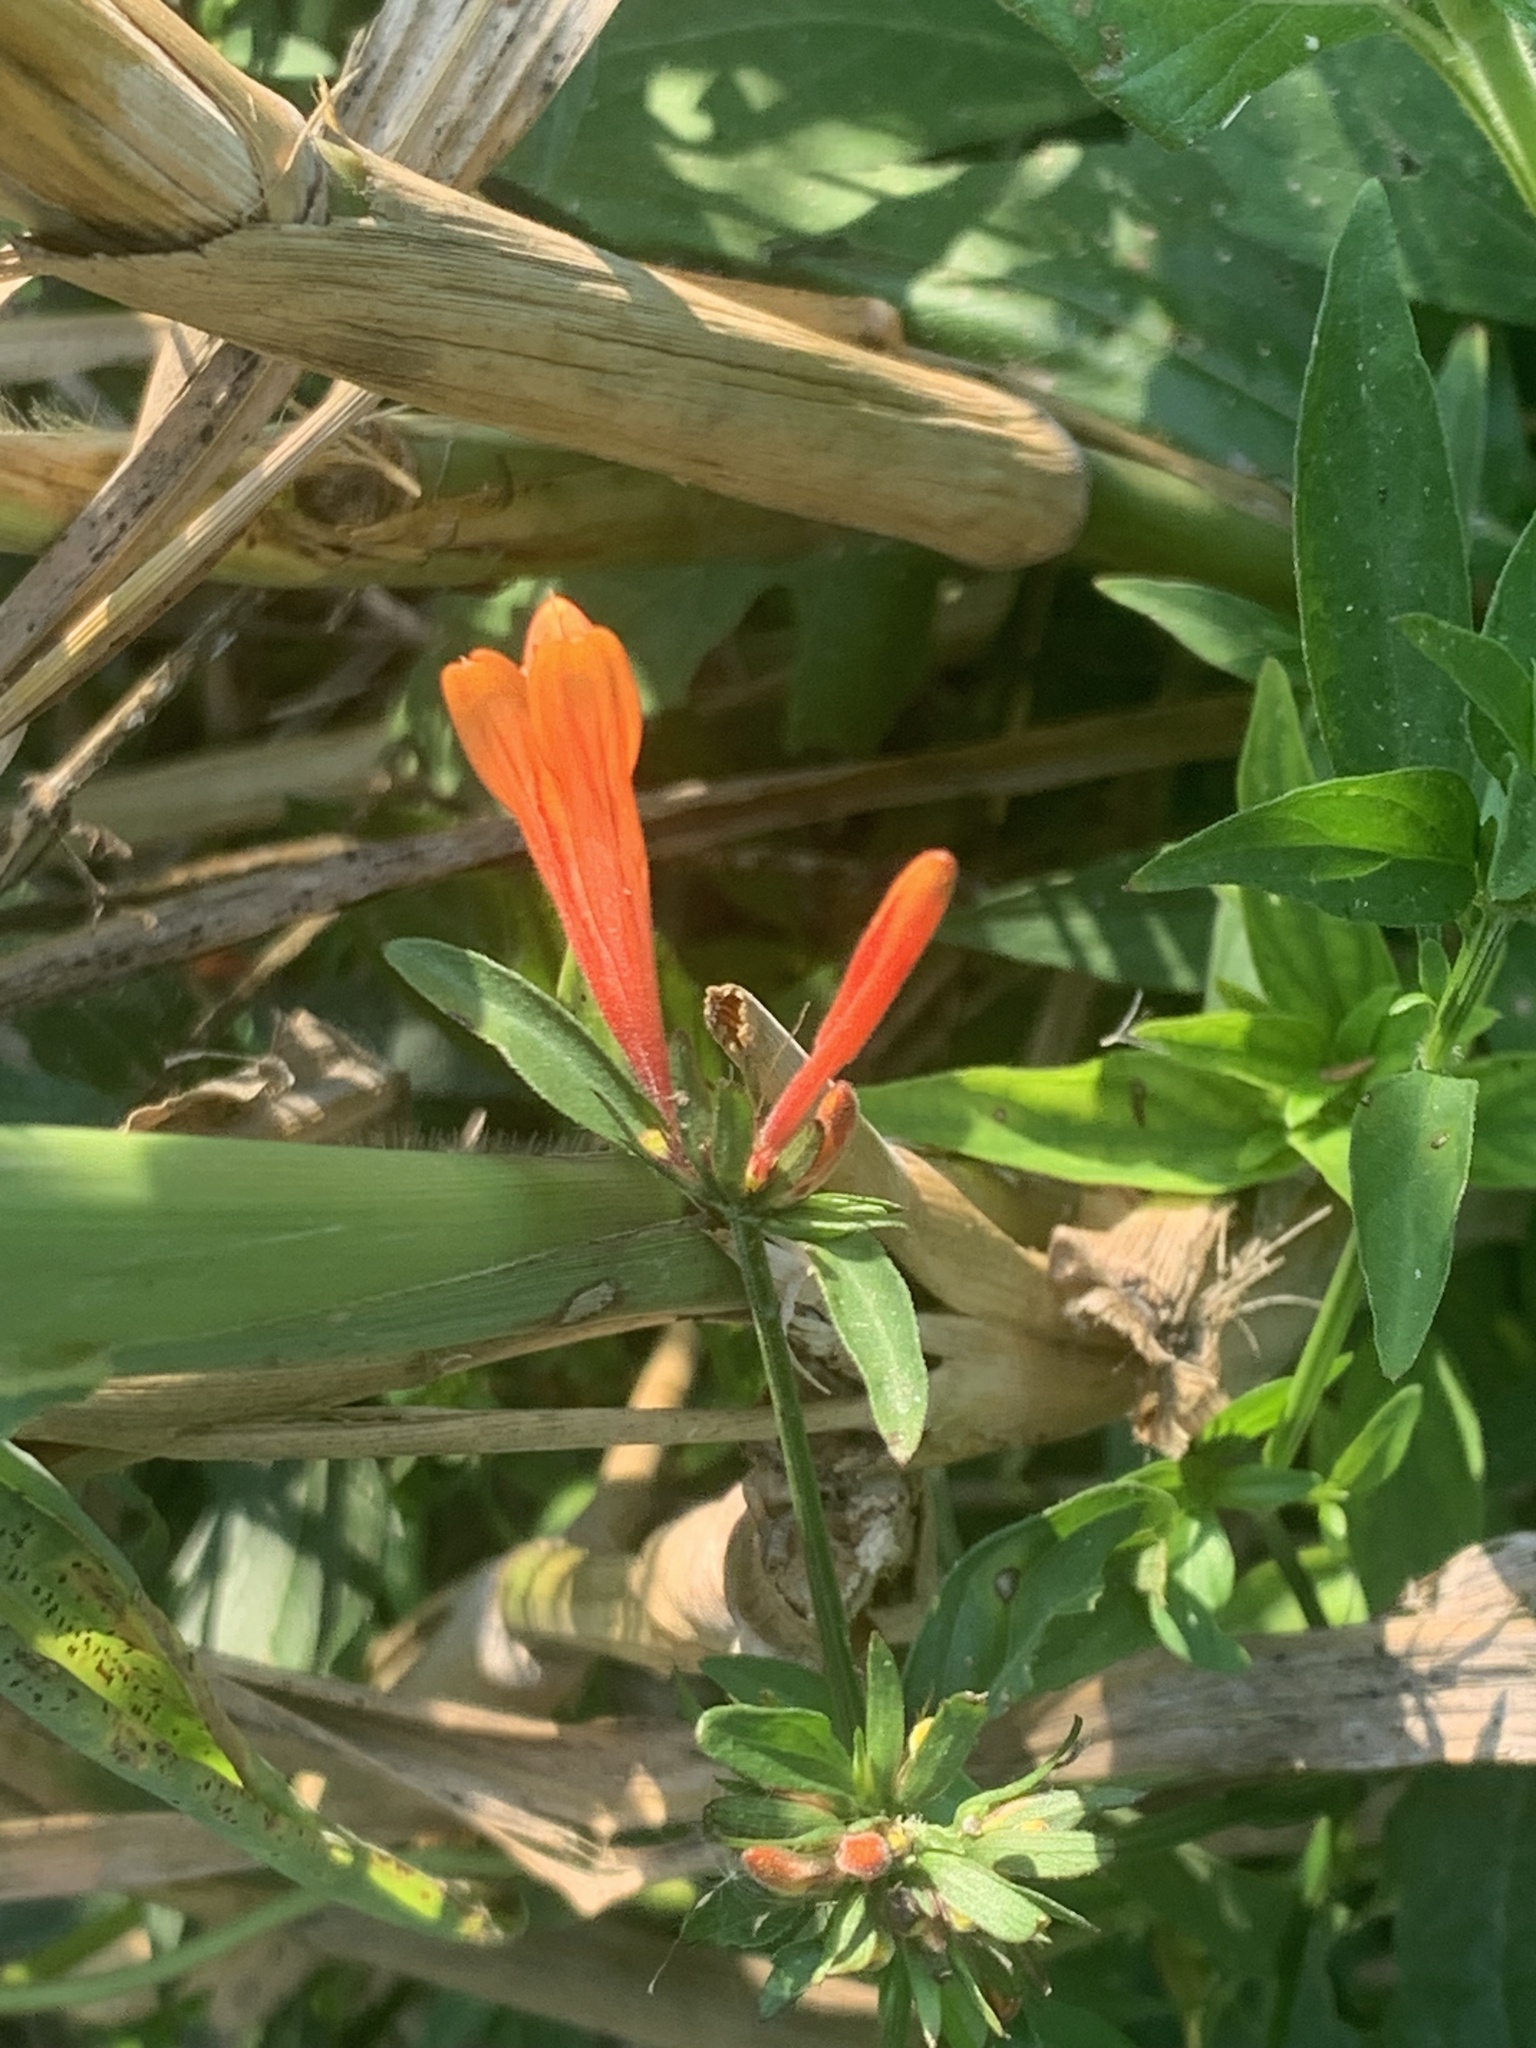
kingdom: Plantae
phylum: Tracheophyta
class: Magnoliopsida
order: Lamiales
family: Acanthaceae
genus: Dicliptera
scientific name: Dicliptera squarrosa
